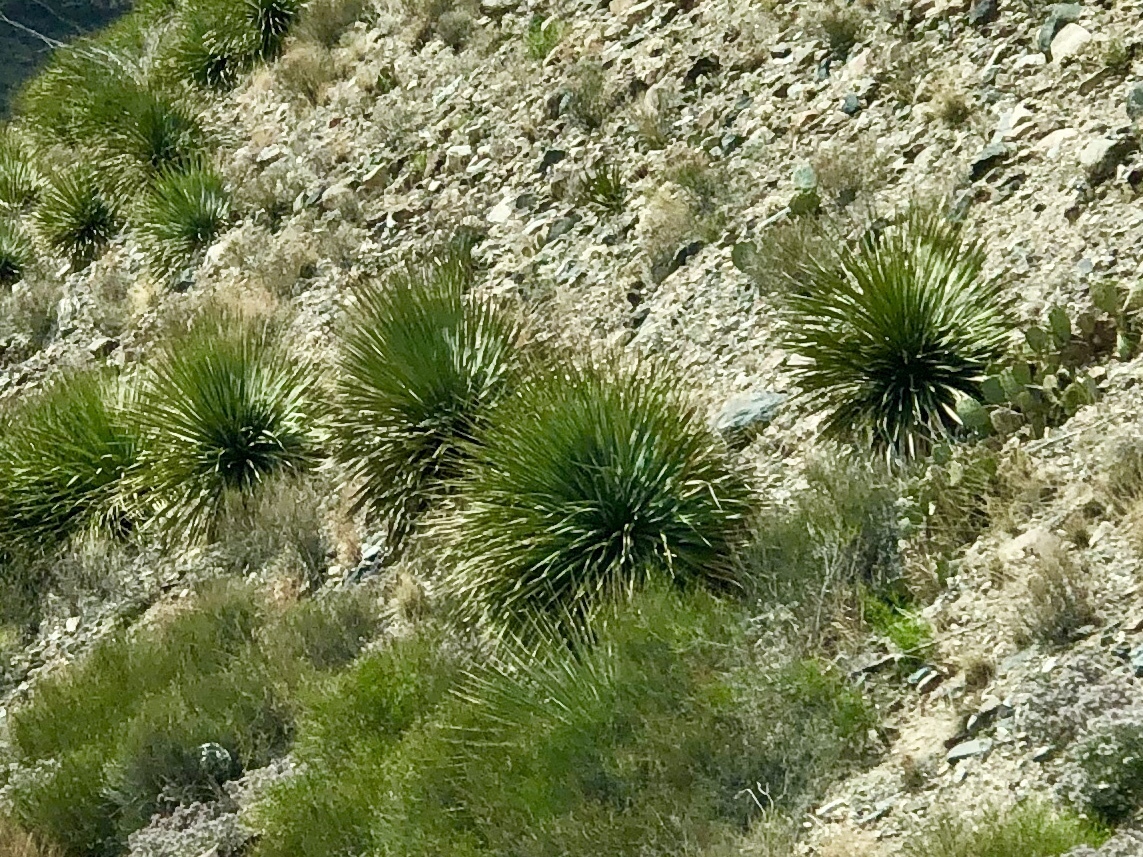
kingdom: Plantae
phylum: Tracheophyta
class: Liliopsida
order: Asparagales
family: Asparagaceae
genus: Dasylirion
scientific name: Dasylirion wheeleri
